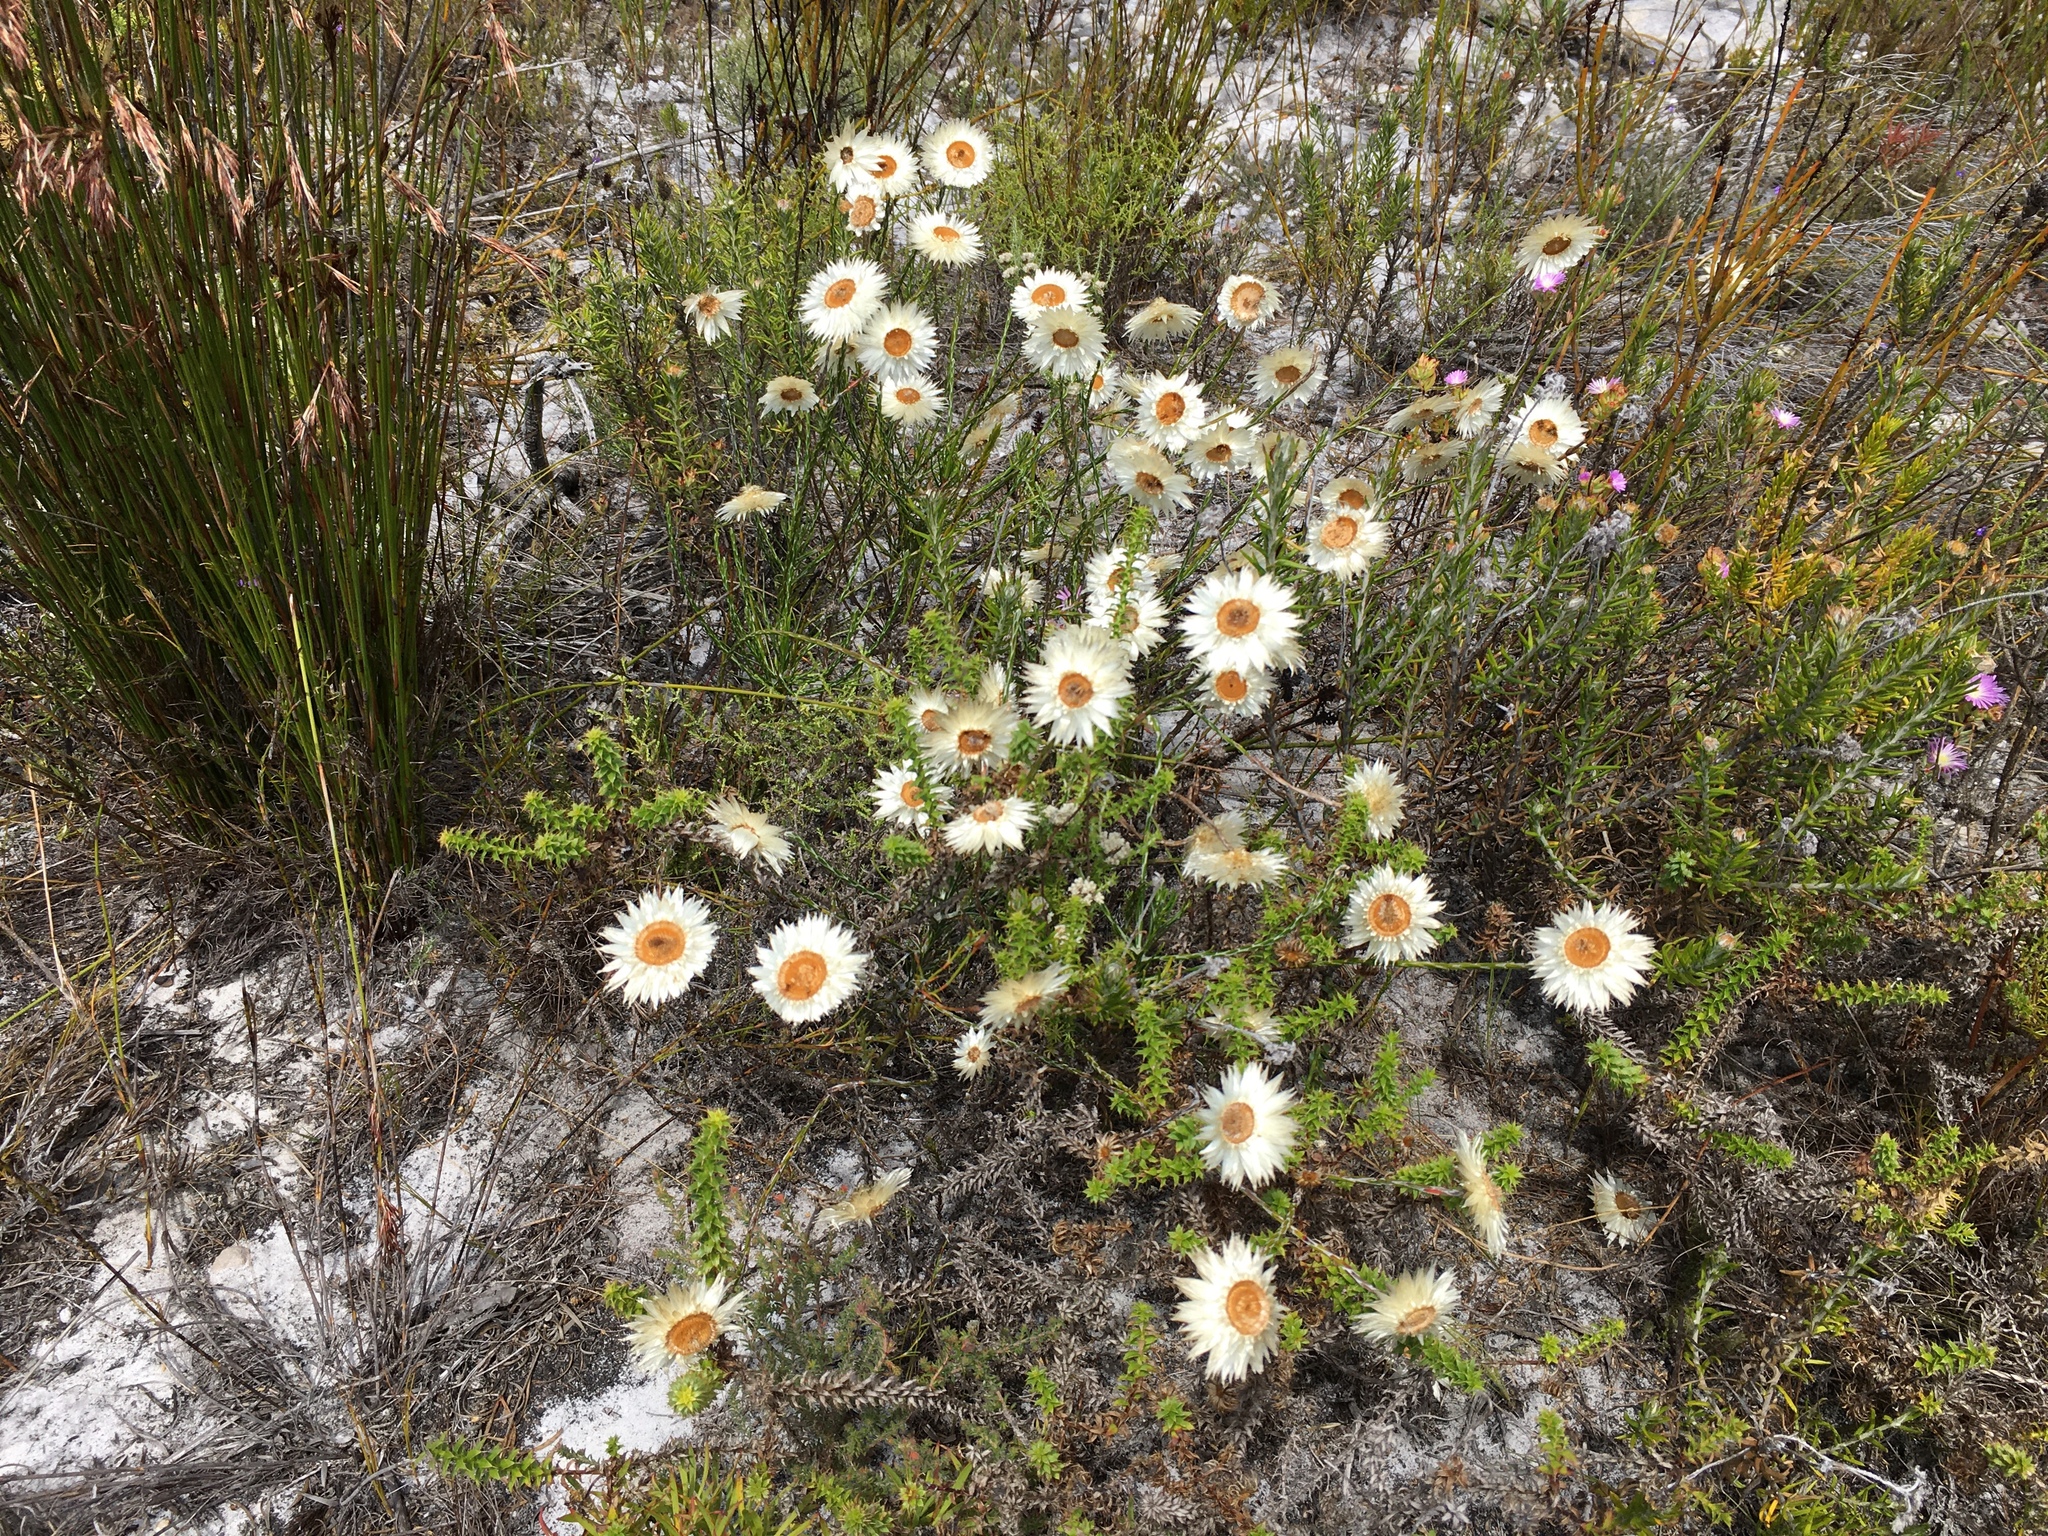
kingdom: Plantae
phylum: Tracheophyta
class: Magnoliopsida
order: Asterales
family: Asteraceae
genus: Edmondia
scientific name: Edmondia sesamoides
